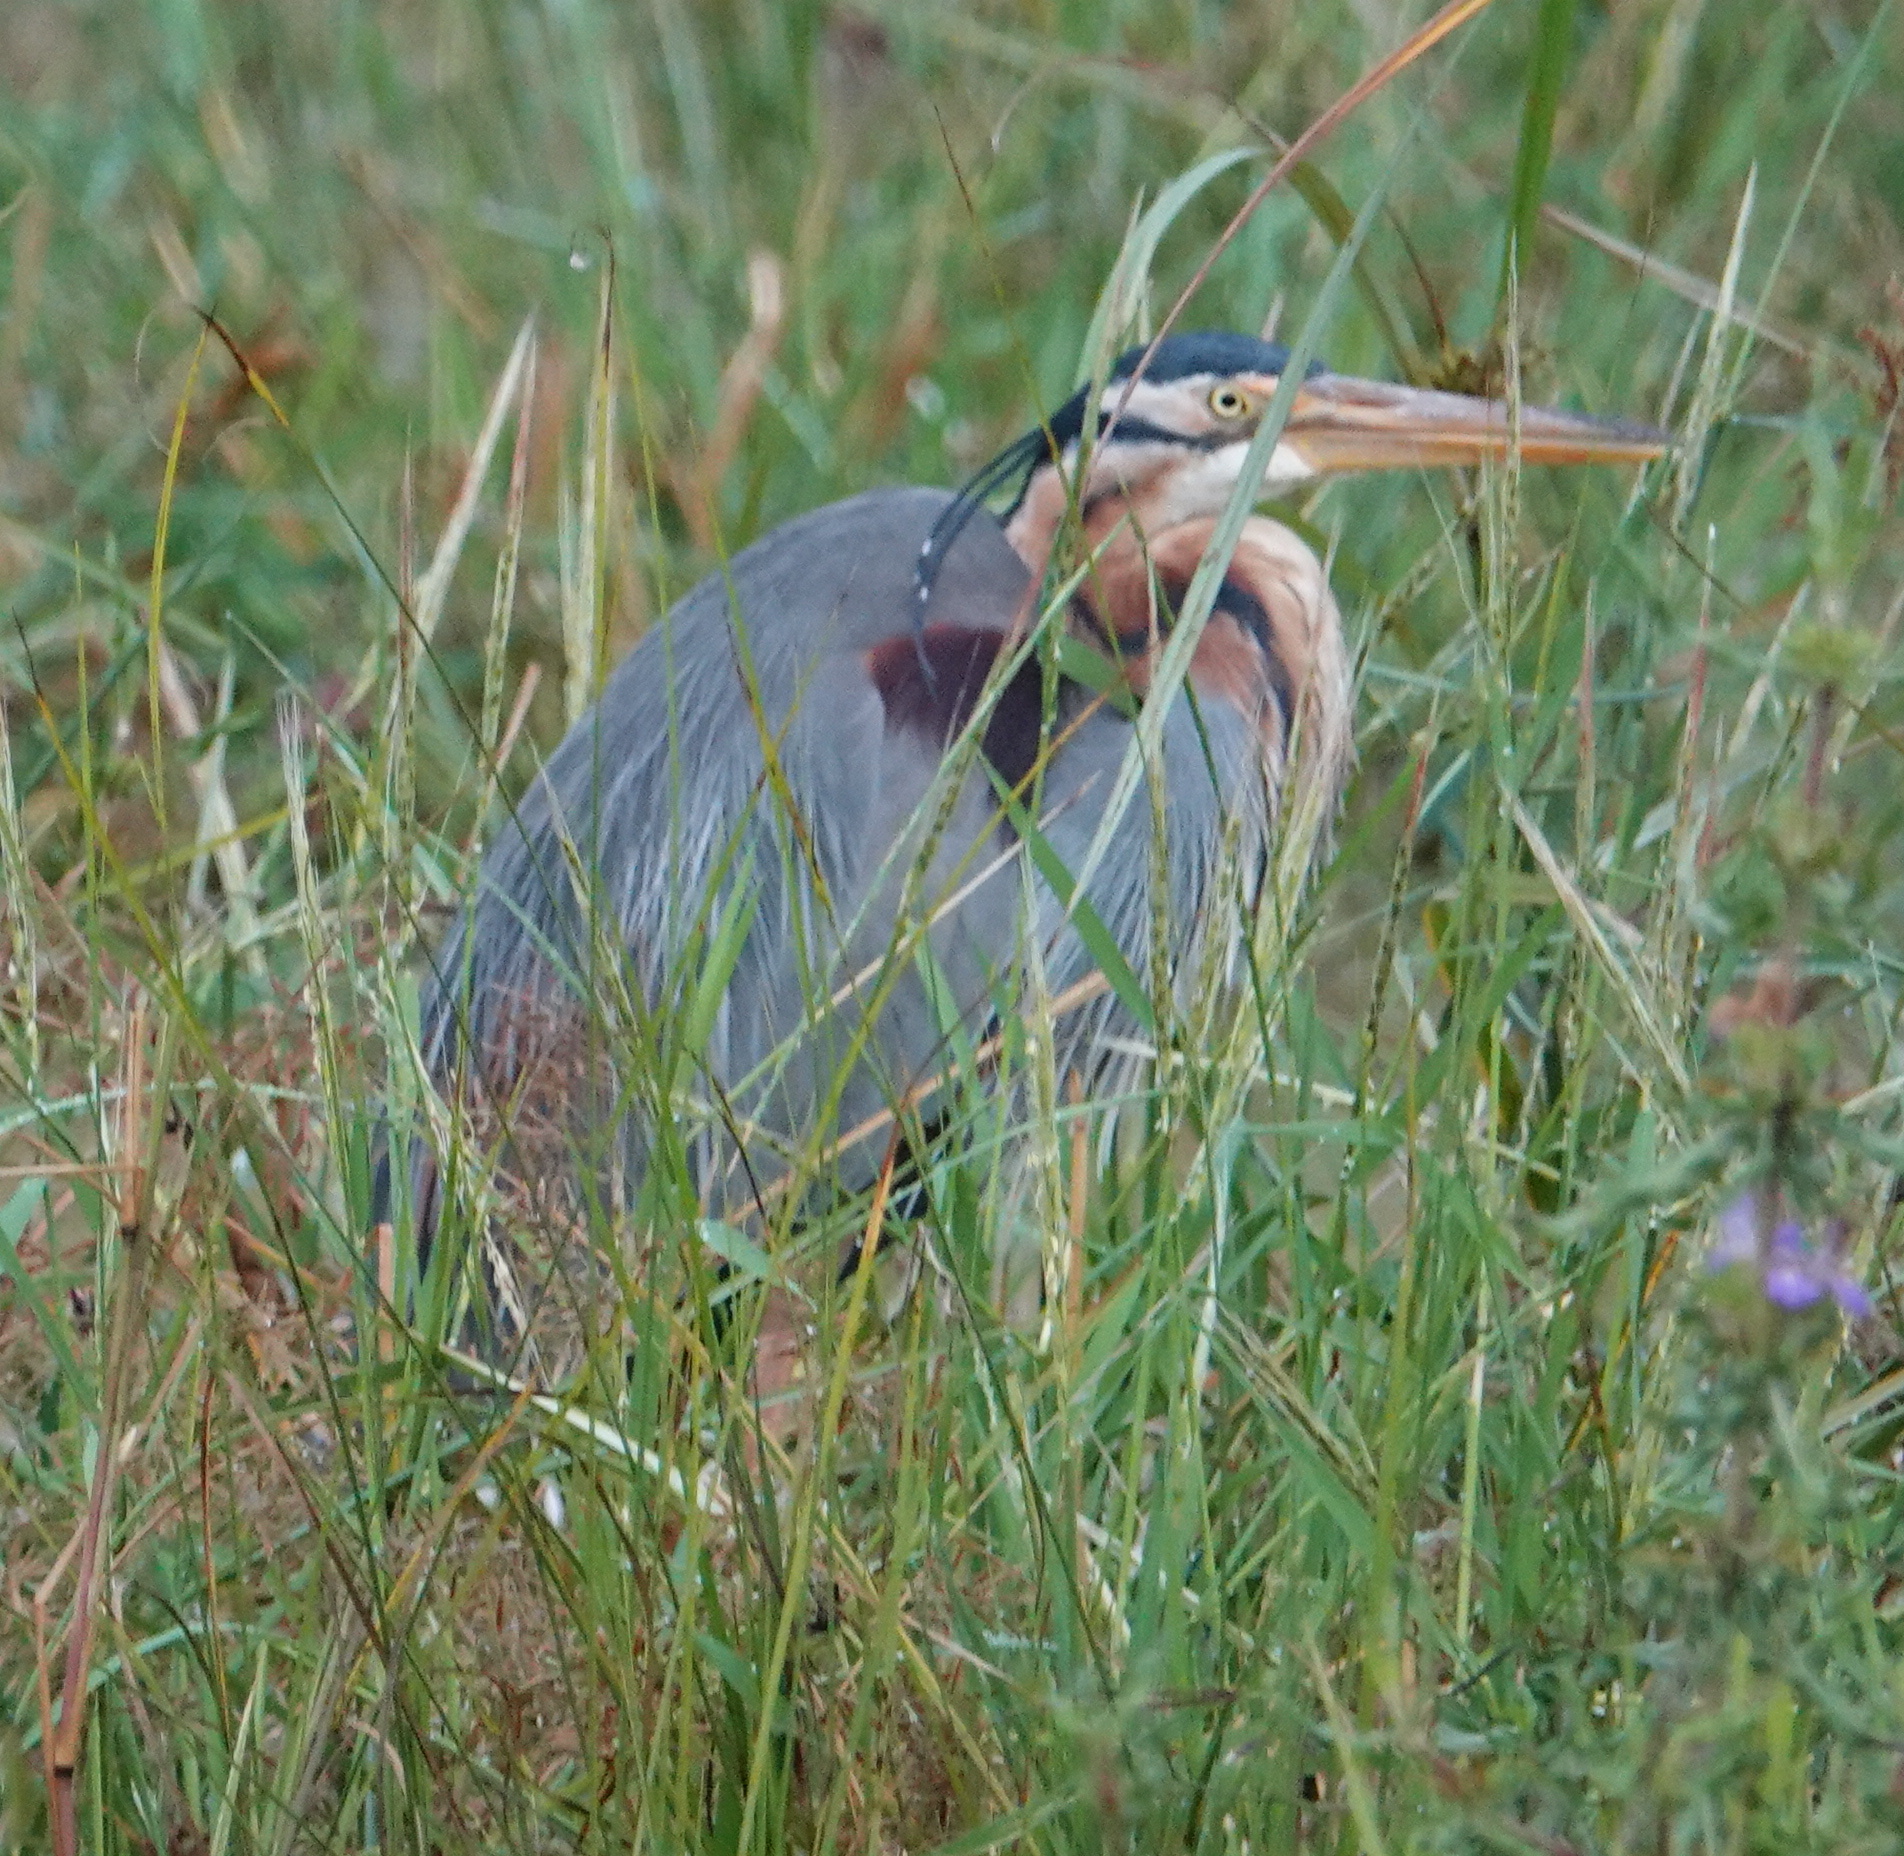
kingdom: Animalia
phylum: Chordata
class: Aves
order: Pelecaniformes
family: Ardeidae
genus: Ardea
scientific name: Ardea purpurea
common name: Purple heron
